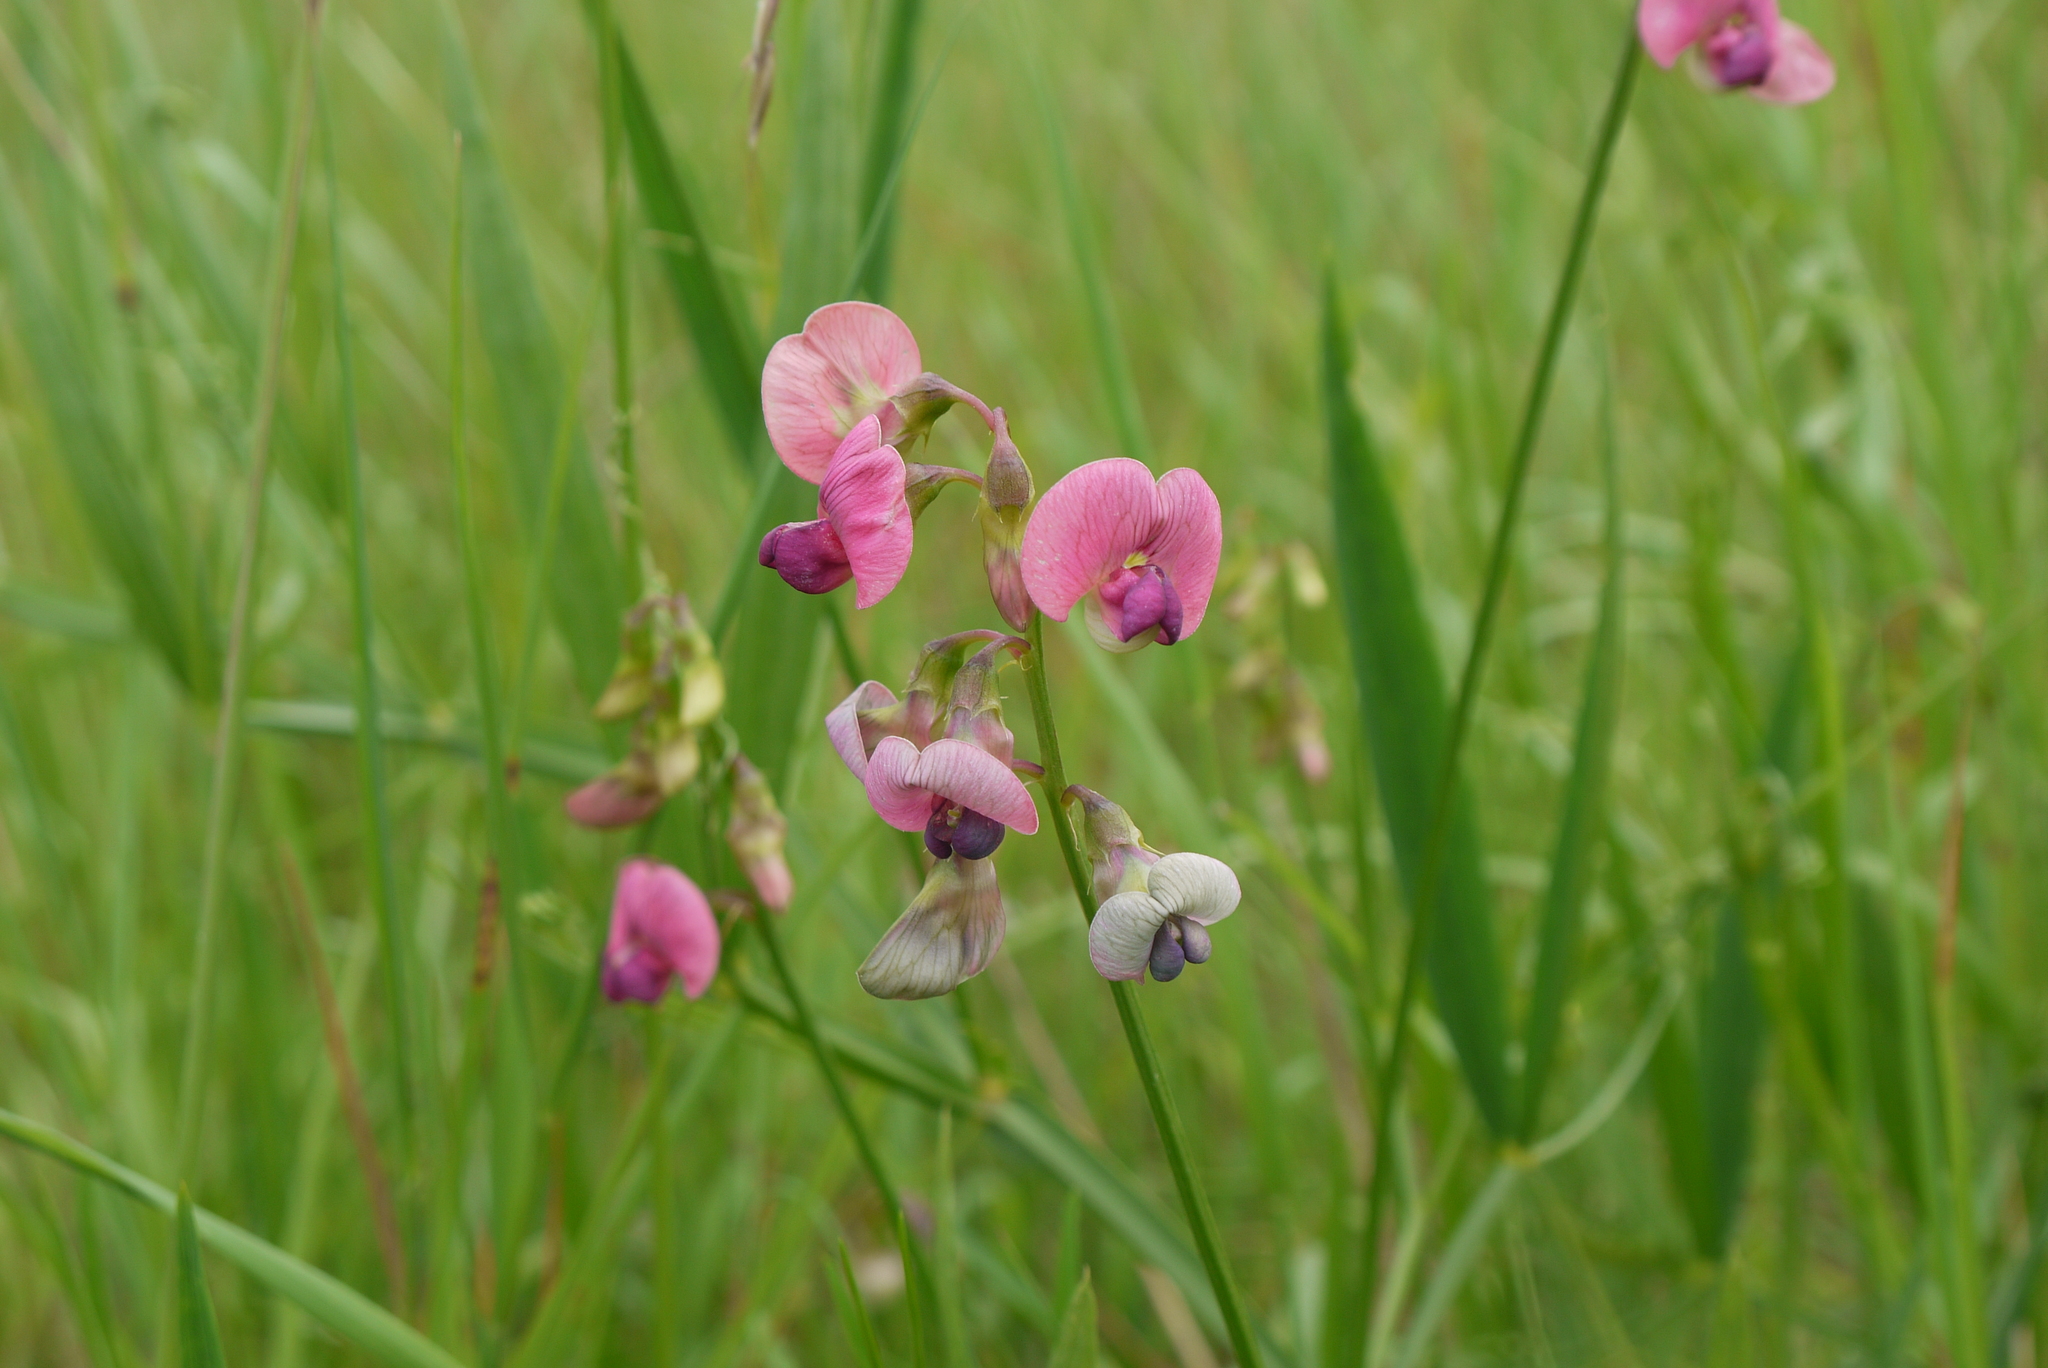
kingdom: Plantae
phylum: Tracheophyta
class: Magnoliopsida
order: Fabales
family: Fabaceae
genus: Lathyrus
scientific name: Lathyrus sylvestris
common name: Flat pea
